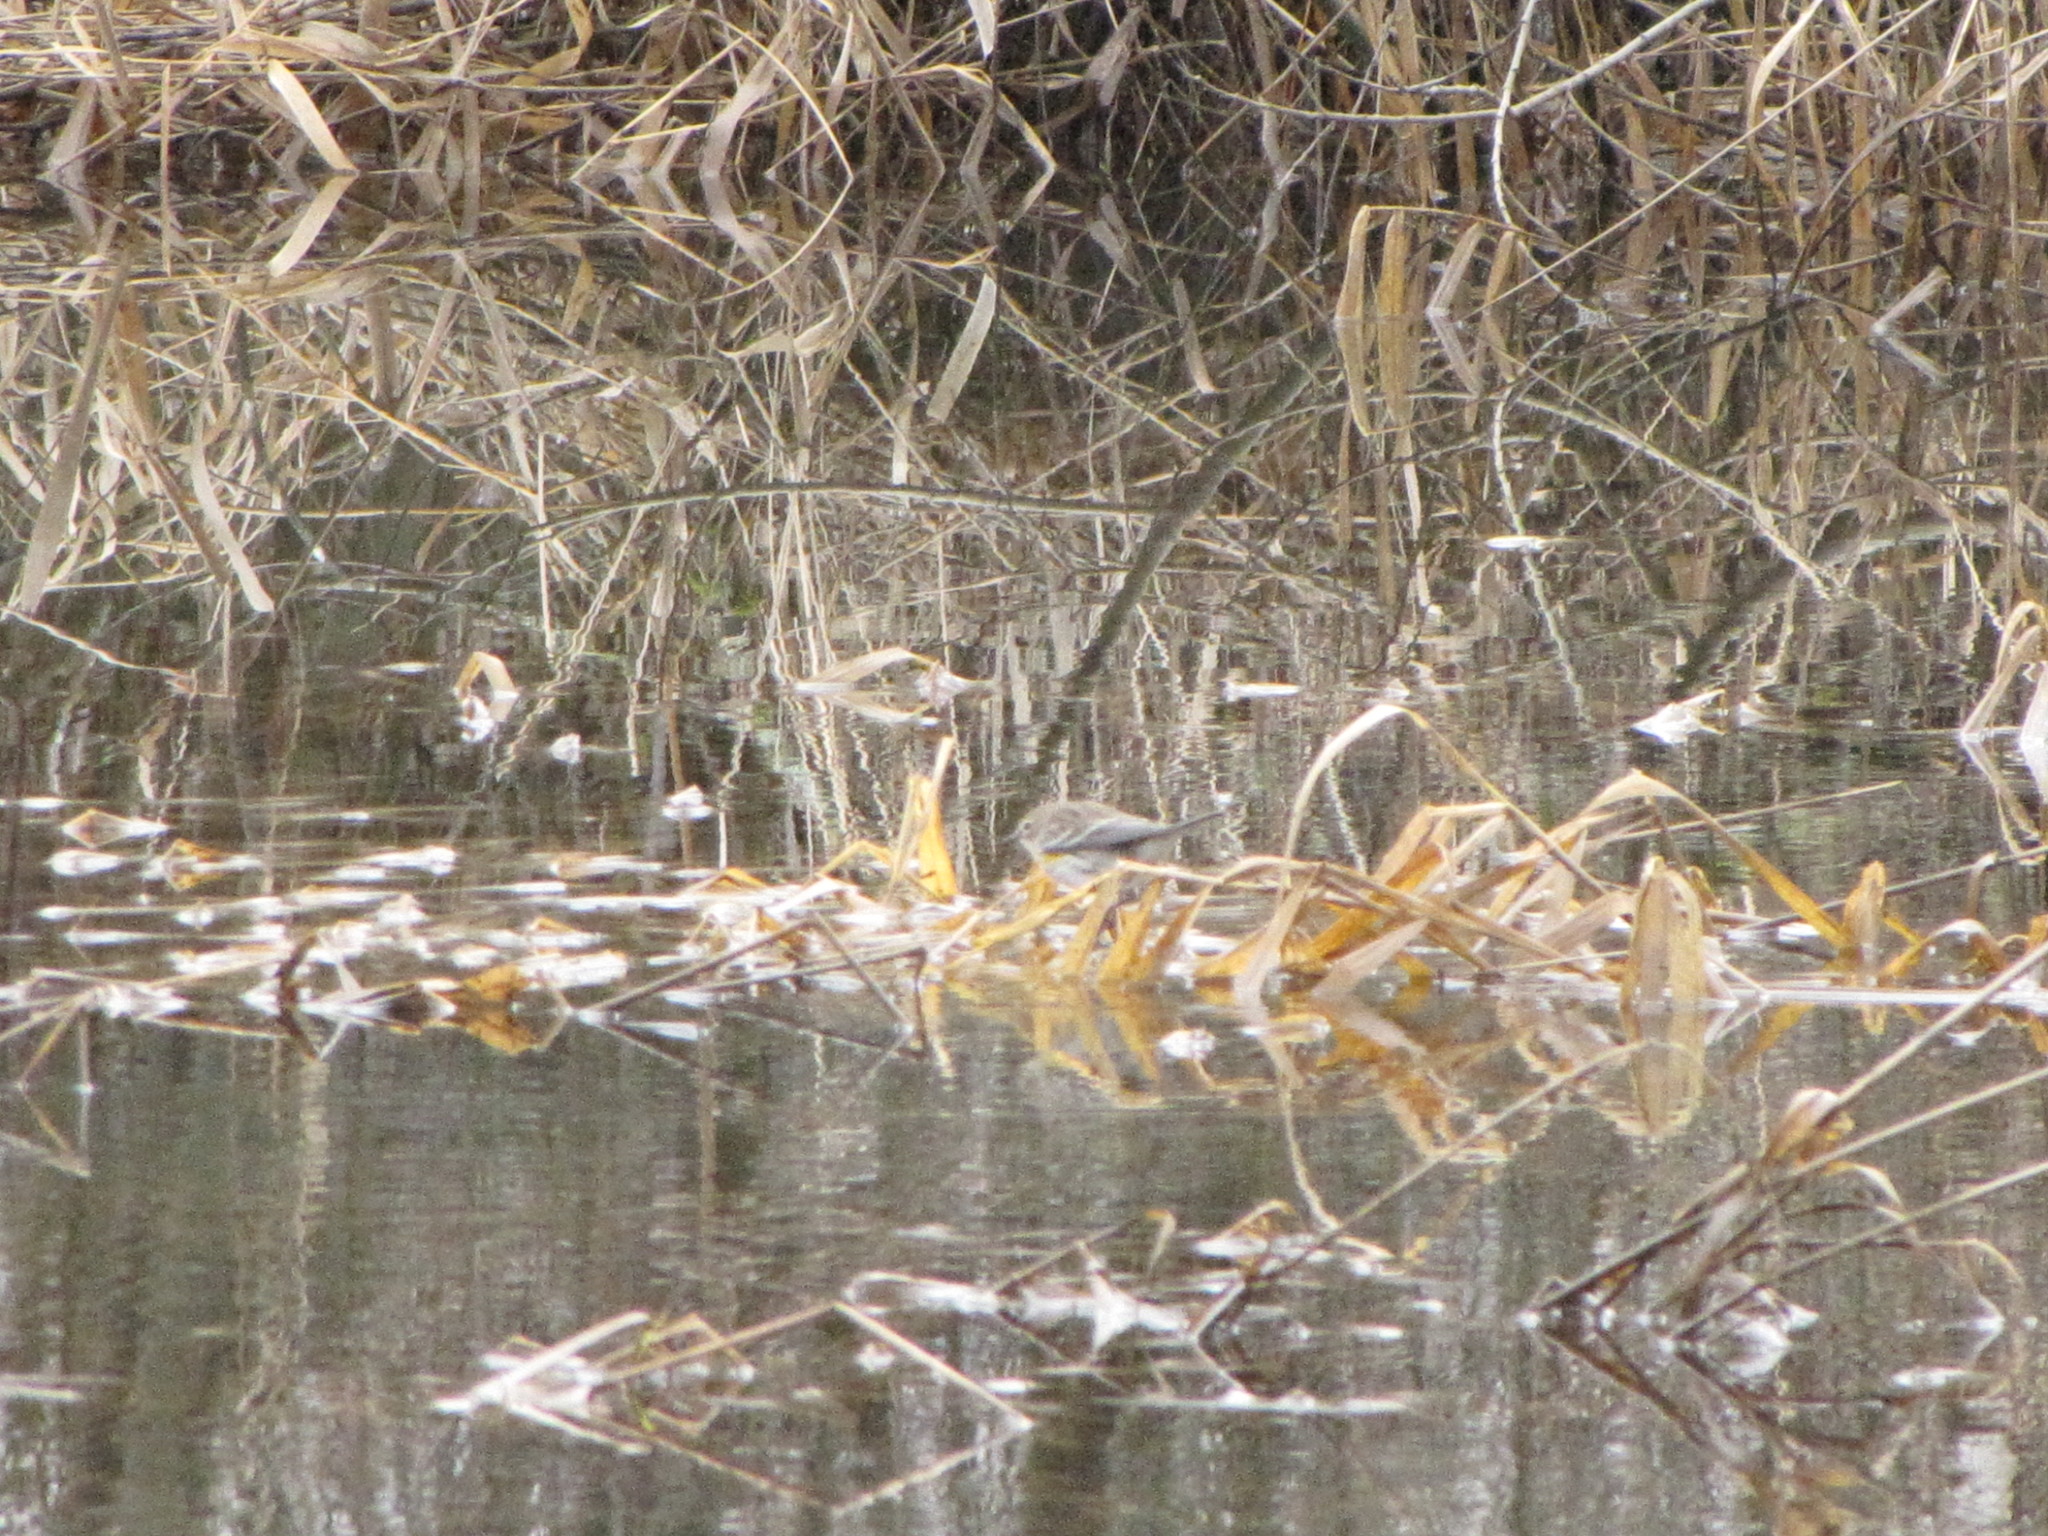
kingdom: Animalia
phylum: Chordata
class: Aves
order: Passeriformes
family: Parulidae
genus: Setophaga
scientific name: Setophaga coronata
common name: Myrtle warbler
